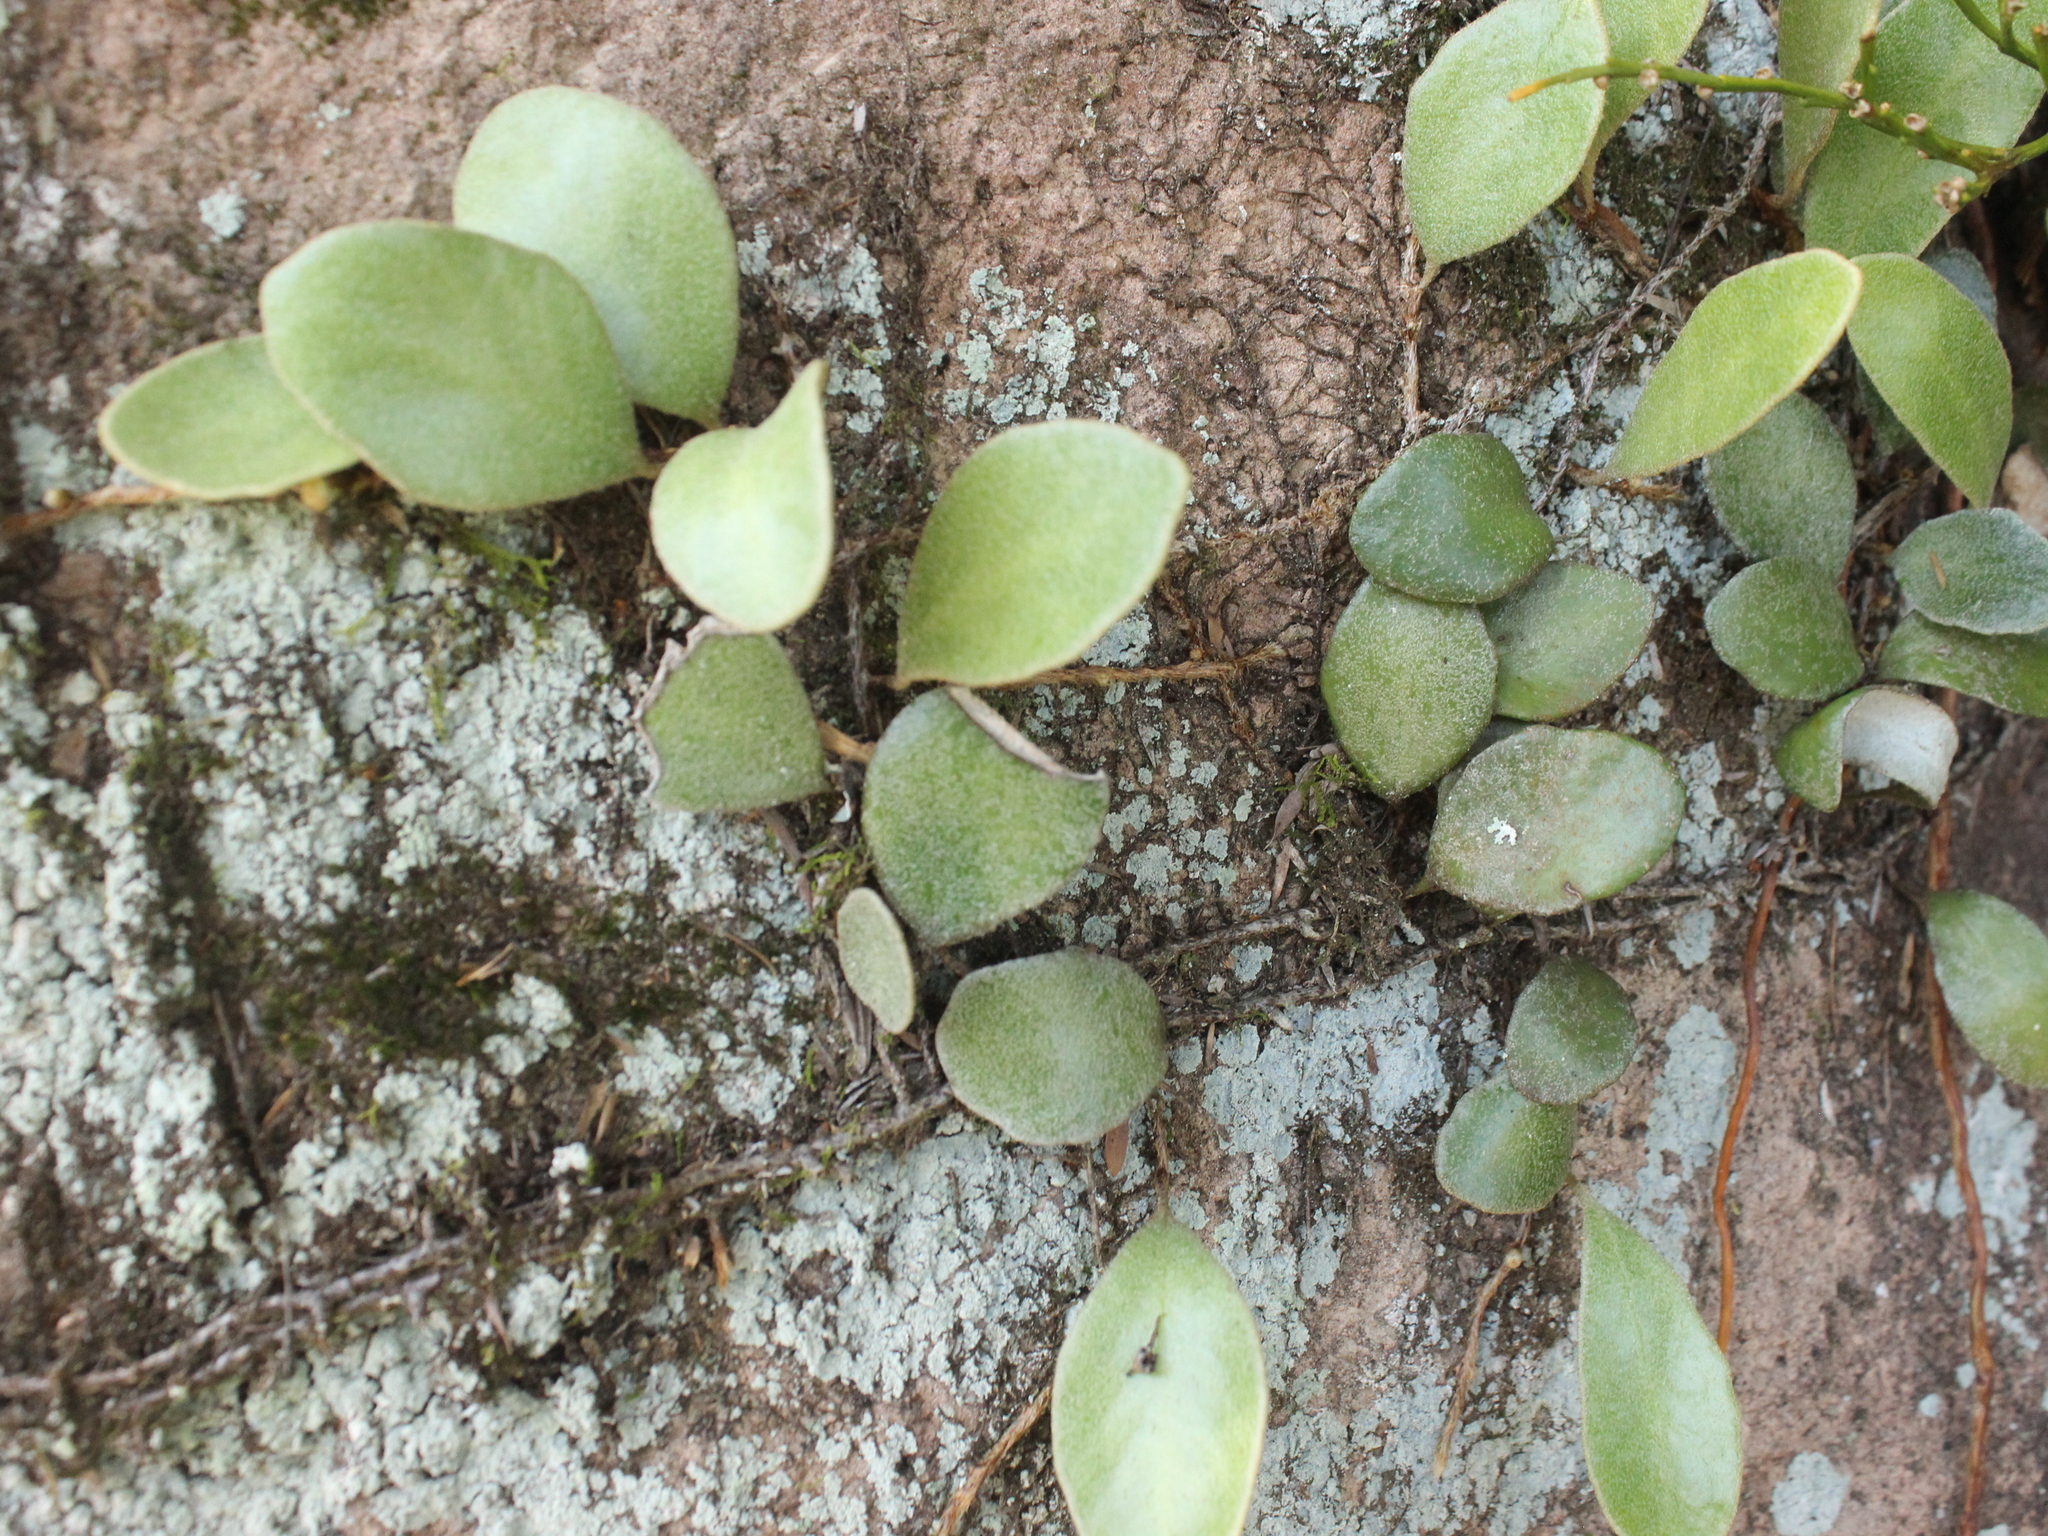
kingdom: Plantae
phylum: Tracheophyta
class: Polypodiopsida
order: Polypodiales
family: Polypodiaceae
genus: Pyrrosia
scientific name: Pyrrosia eleagnifolia
